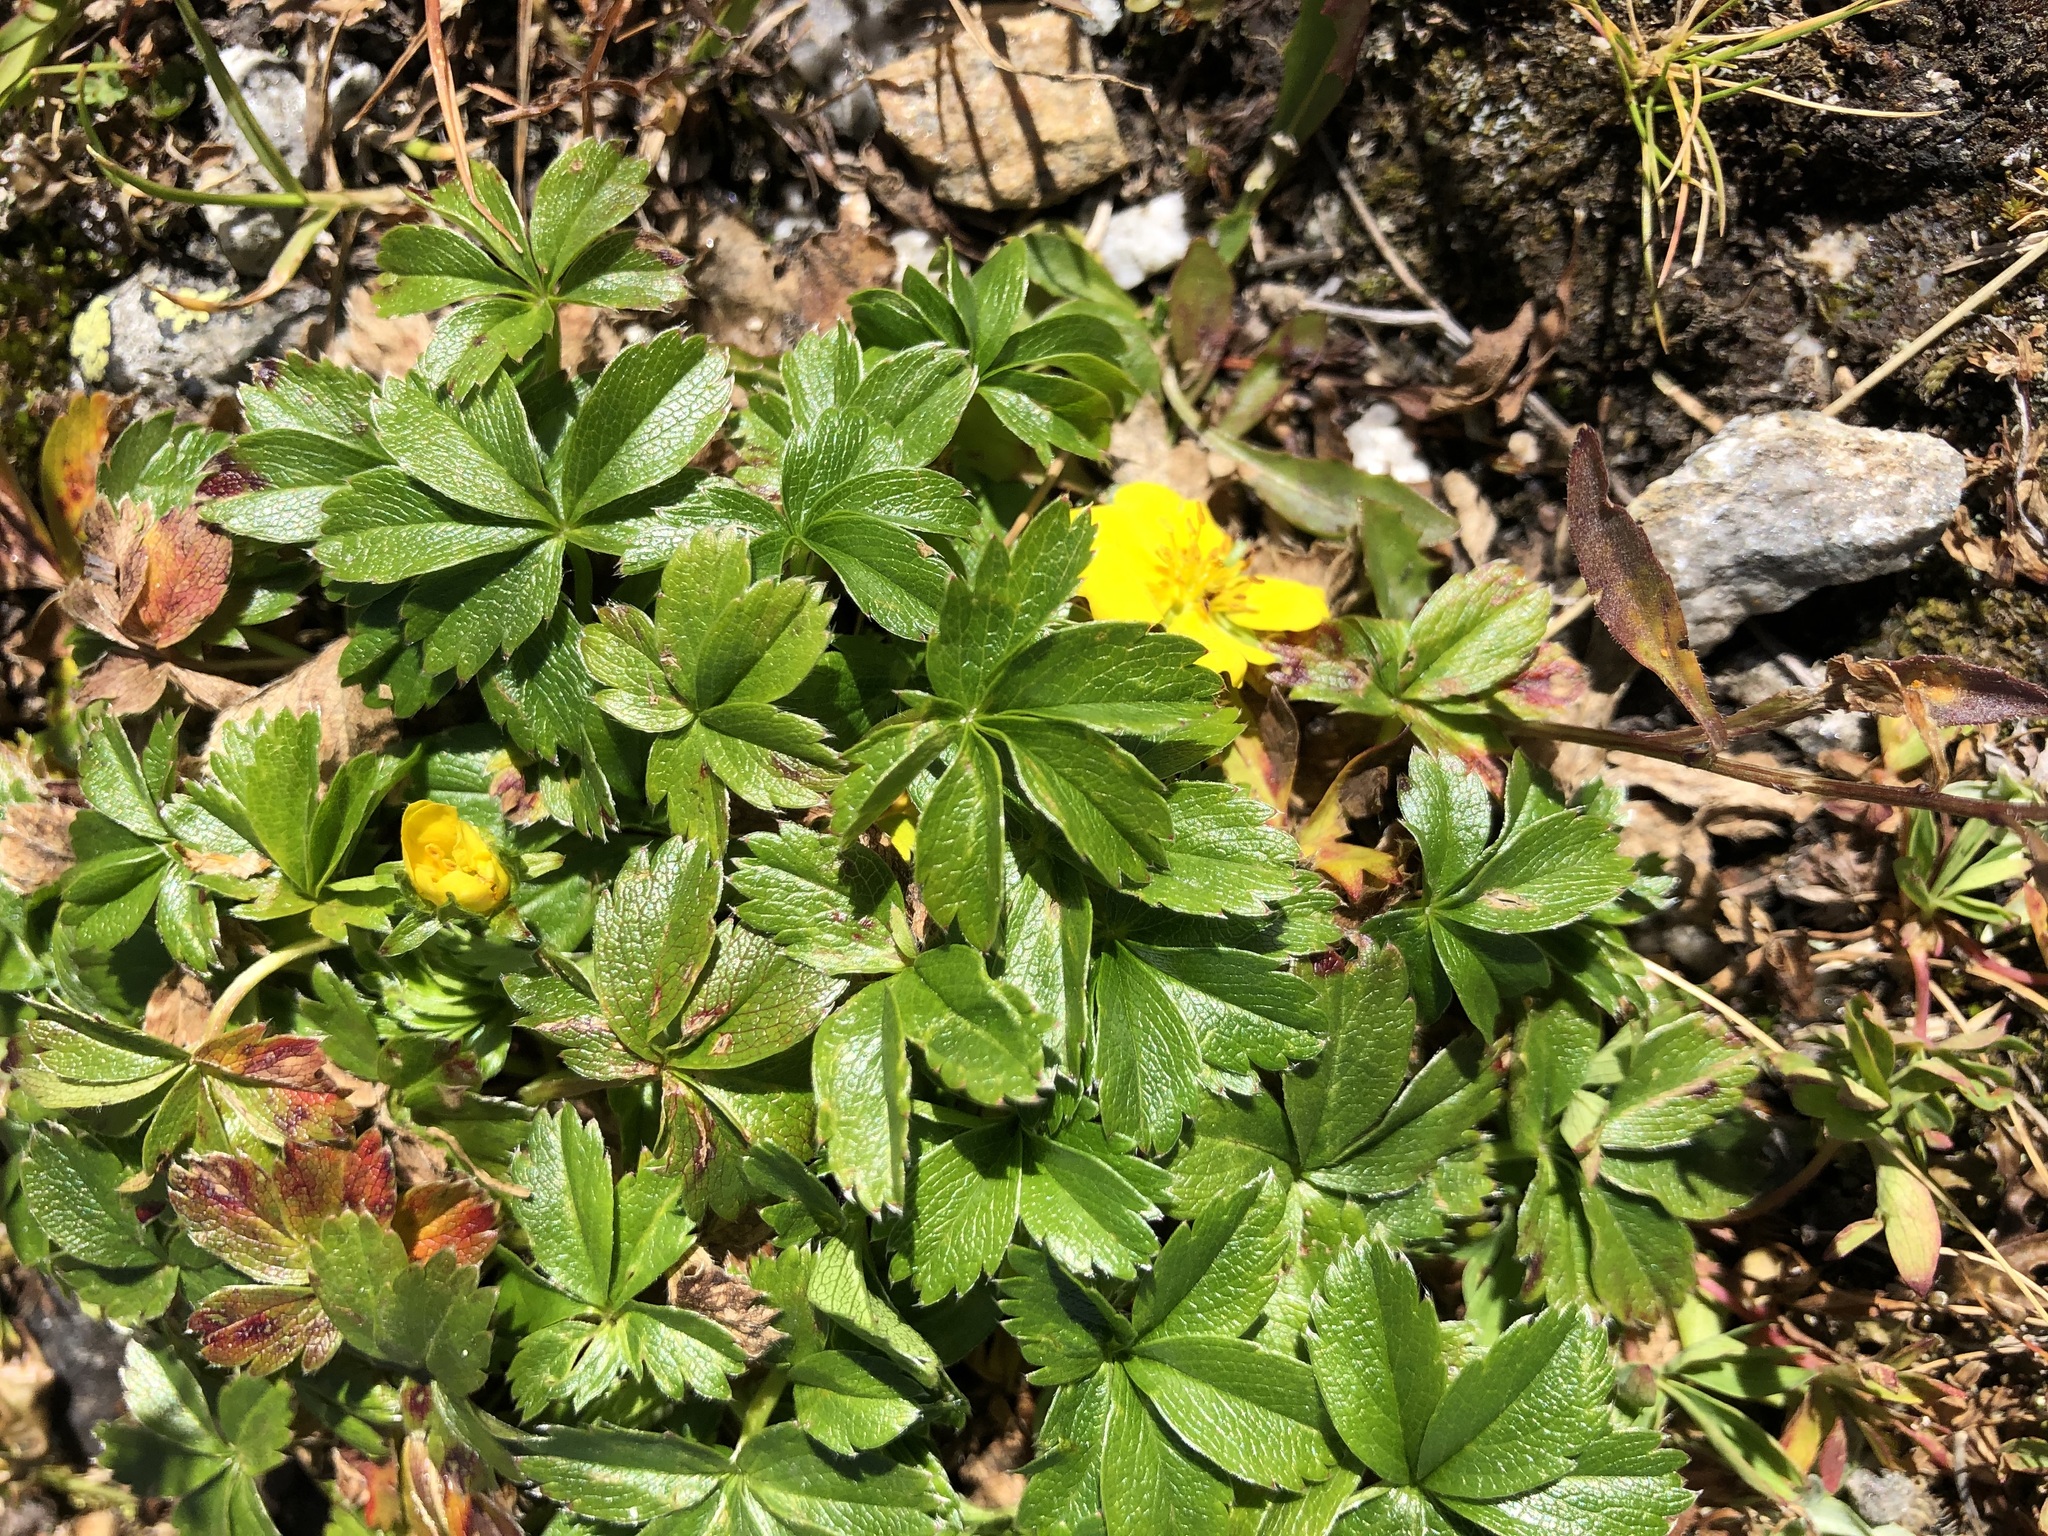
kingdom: Plantae
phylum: Tracheophyta
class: Magnoliopsida
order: Rosales
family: Rosaceae
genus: Potentilla
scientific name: Potentilla aurea
